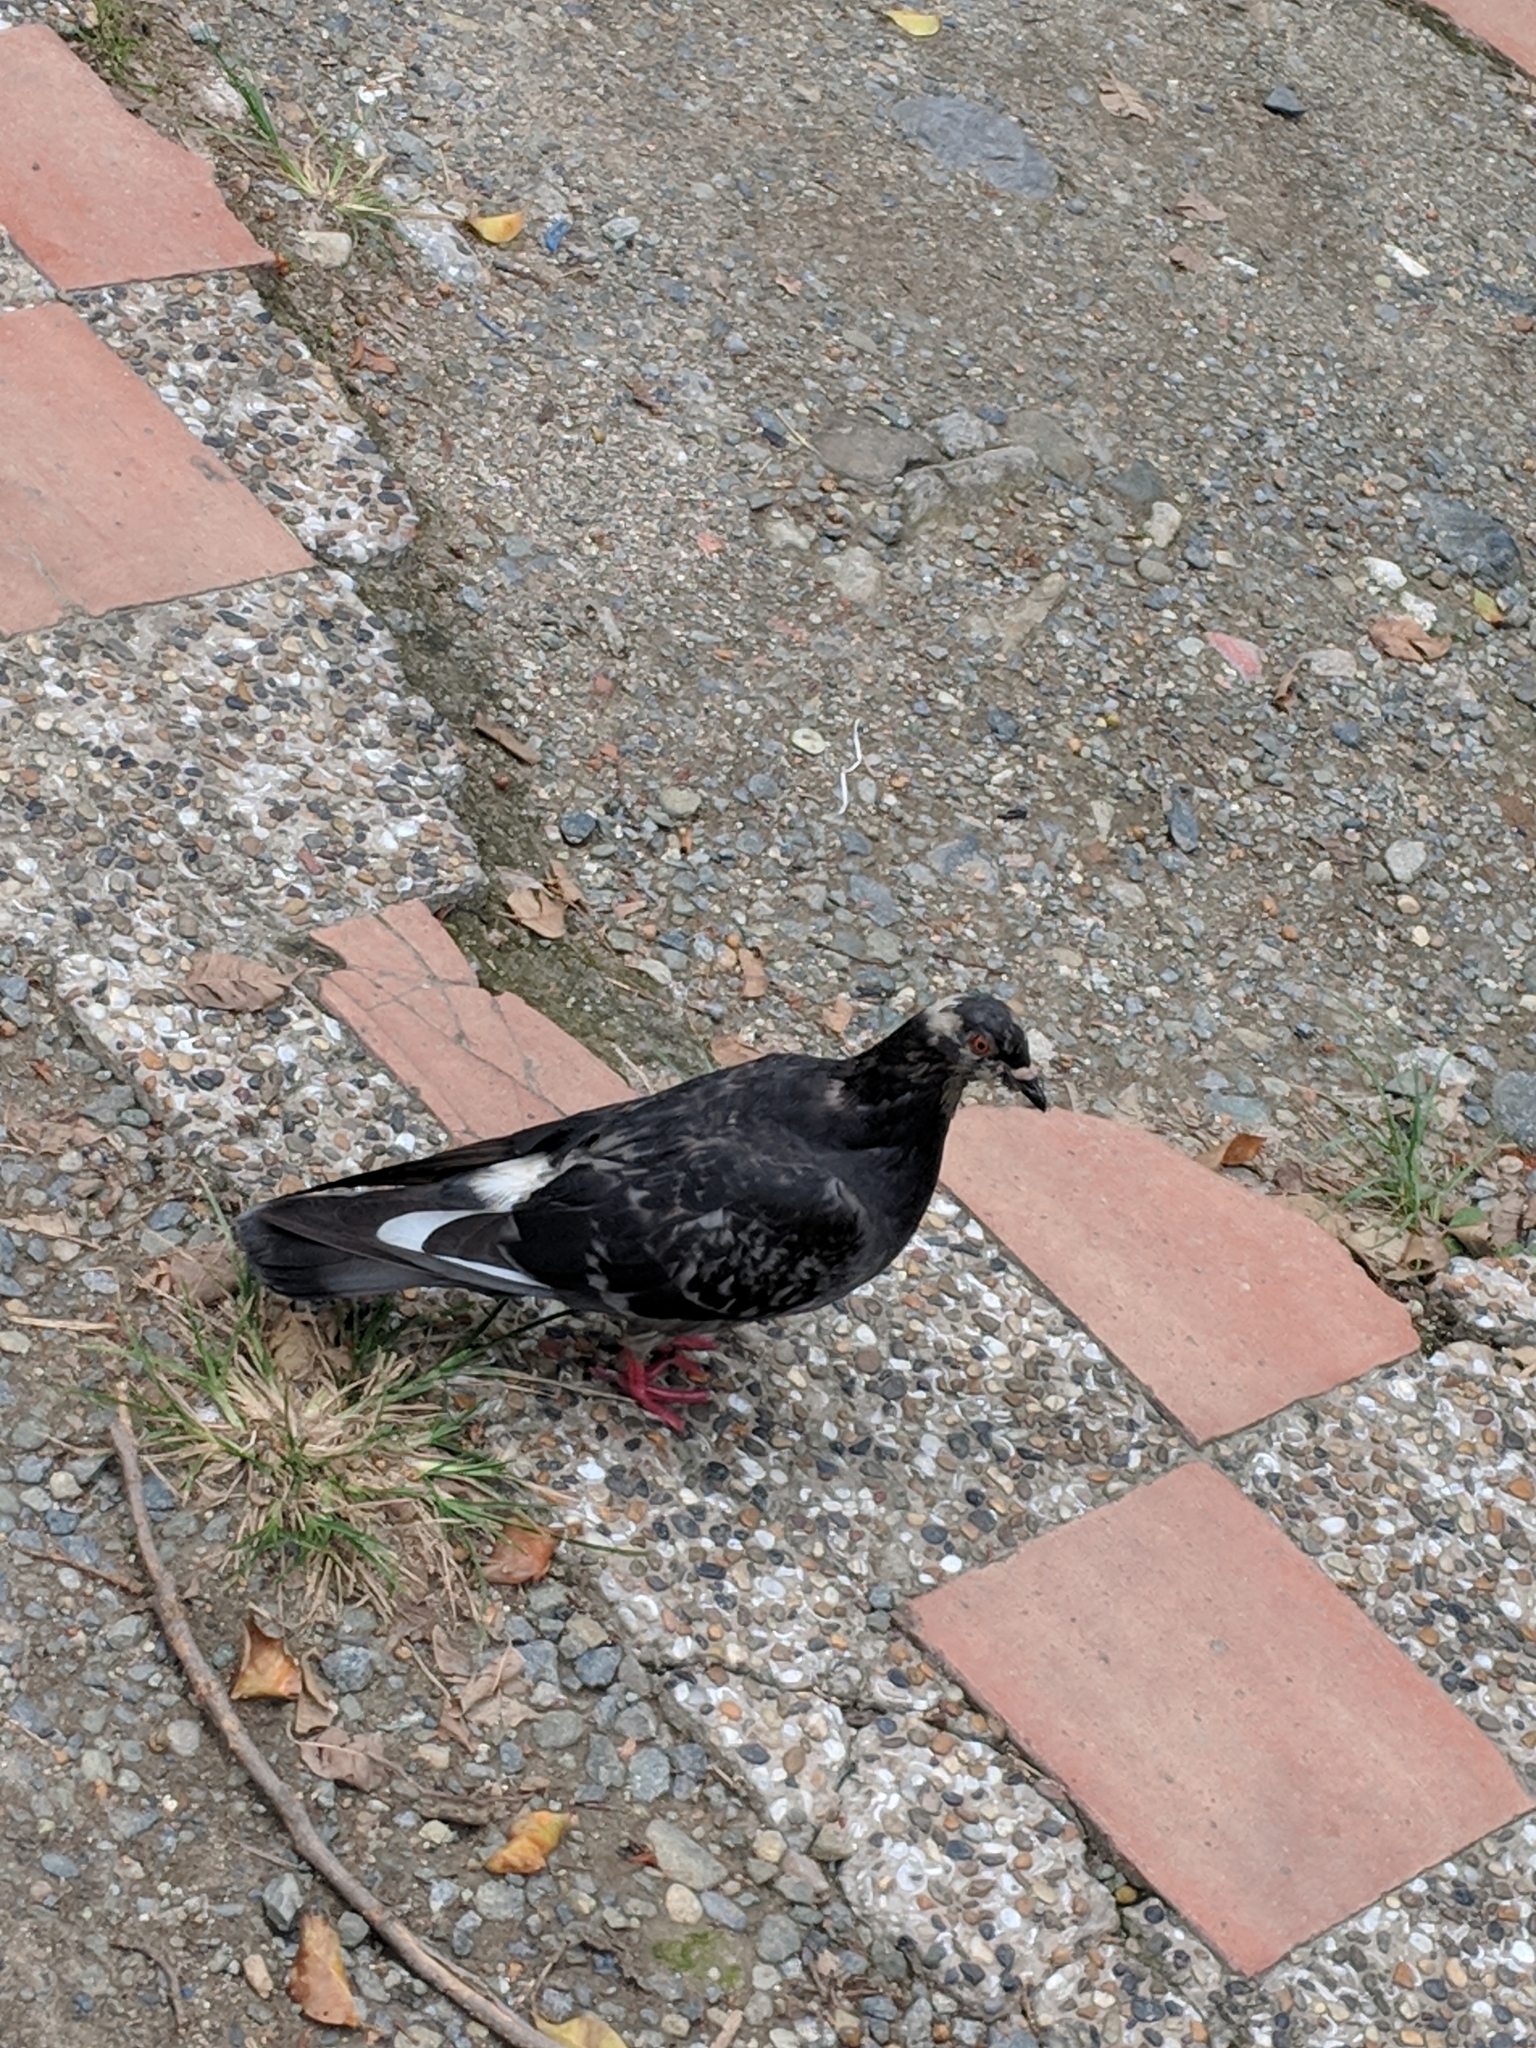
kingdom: Animalia
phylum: Chordata
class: Aves
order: Columbiformes
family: Columbidae
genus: Columba
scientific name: Columba livia
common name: Rock pigeon
